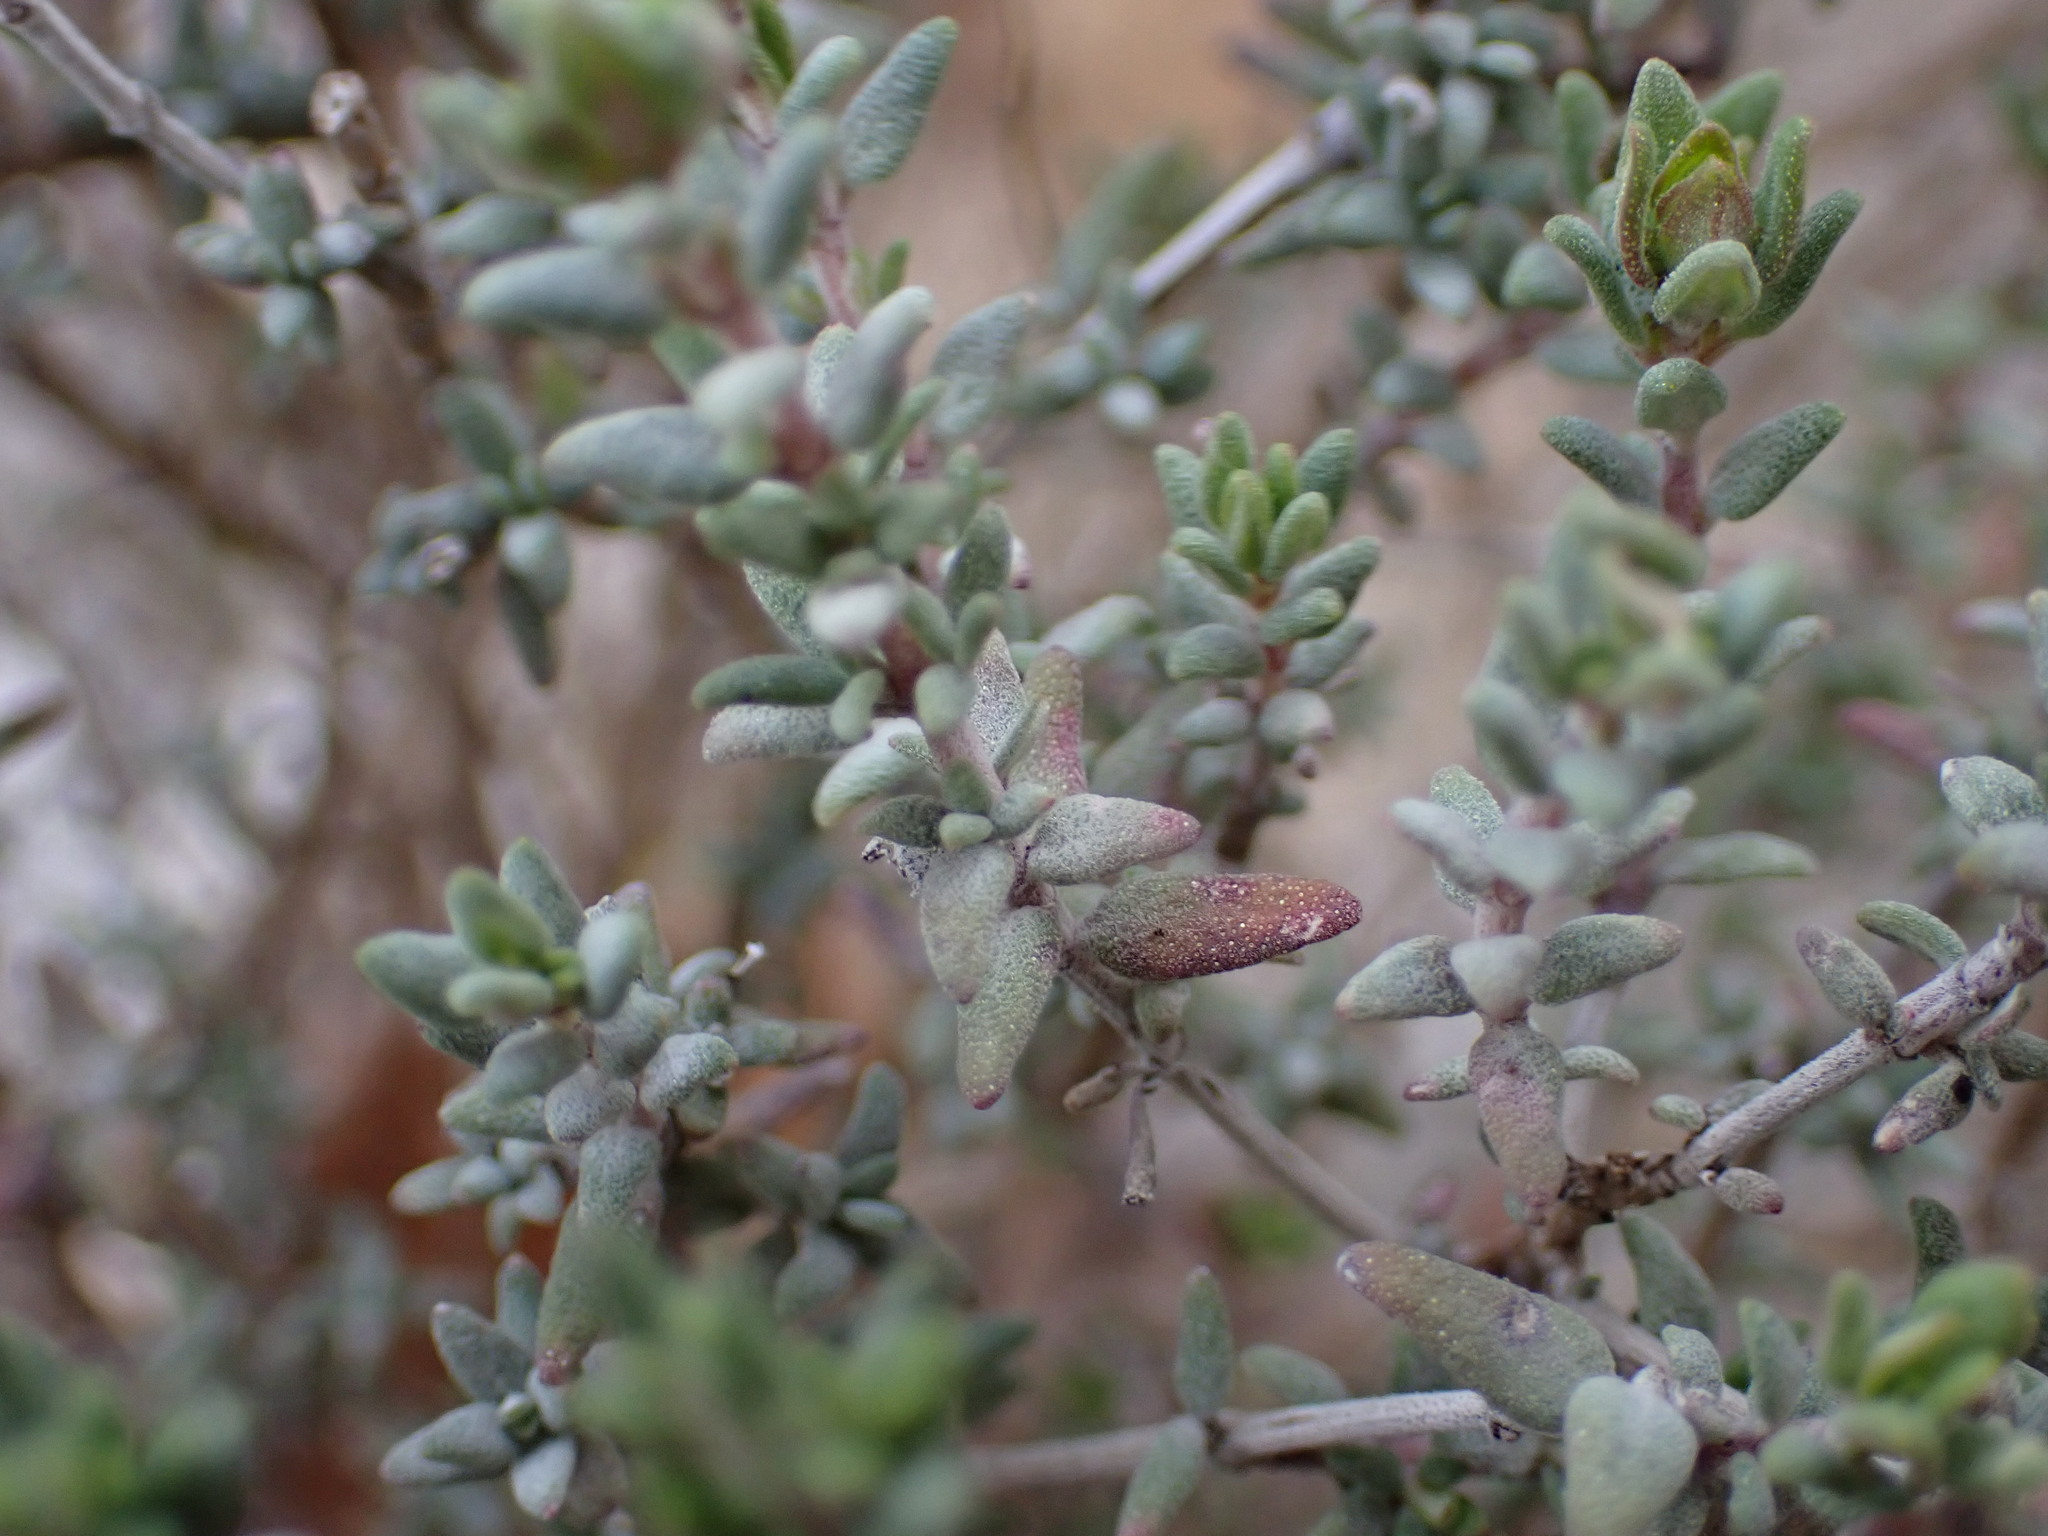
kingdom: Plantae
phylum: Tracheophyta
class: Magnoliopsida
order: Lamiales
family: Lamiaceae
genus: Thymus
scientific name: Thymus vulgaris
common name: Garden thyme
